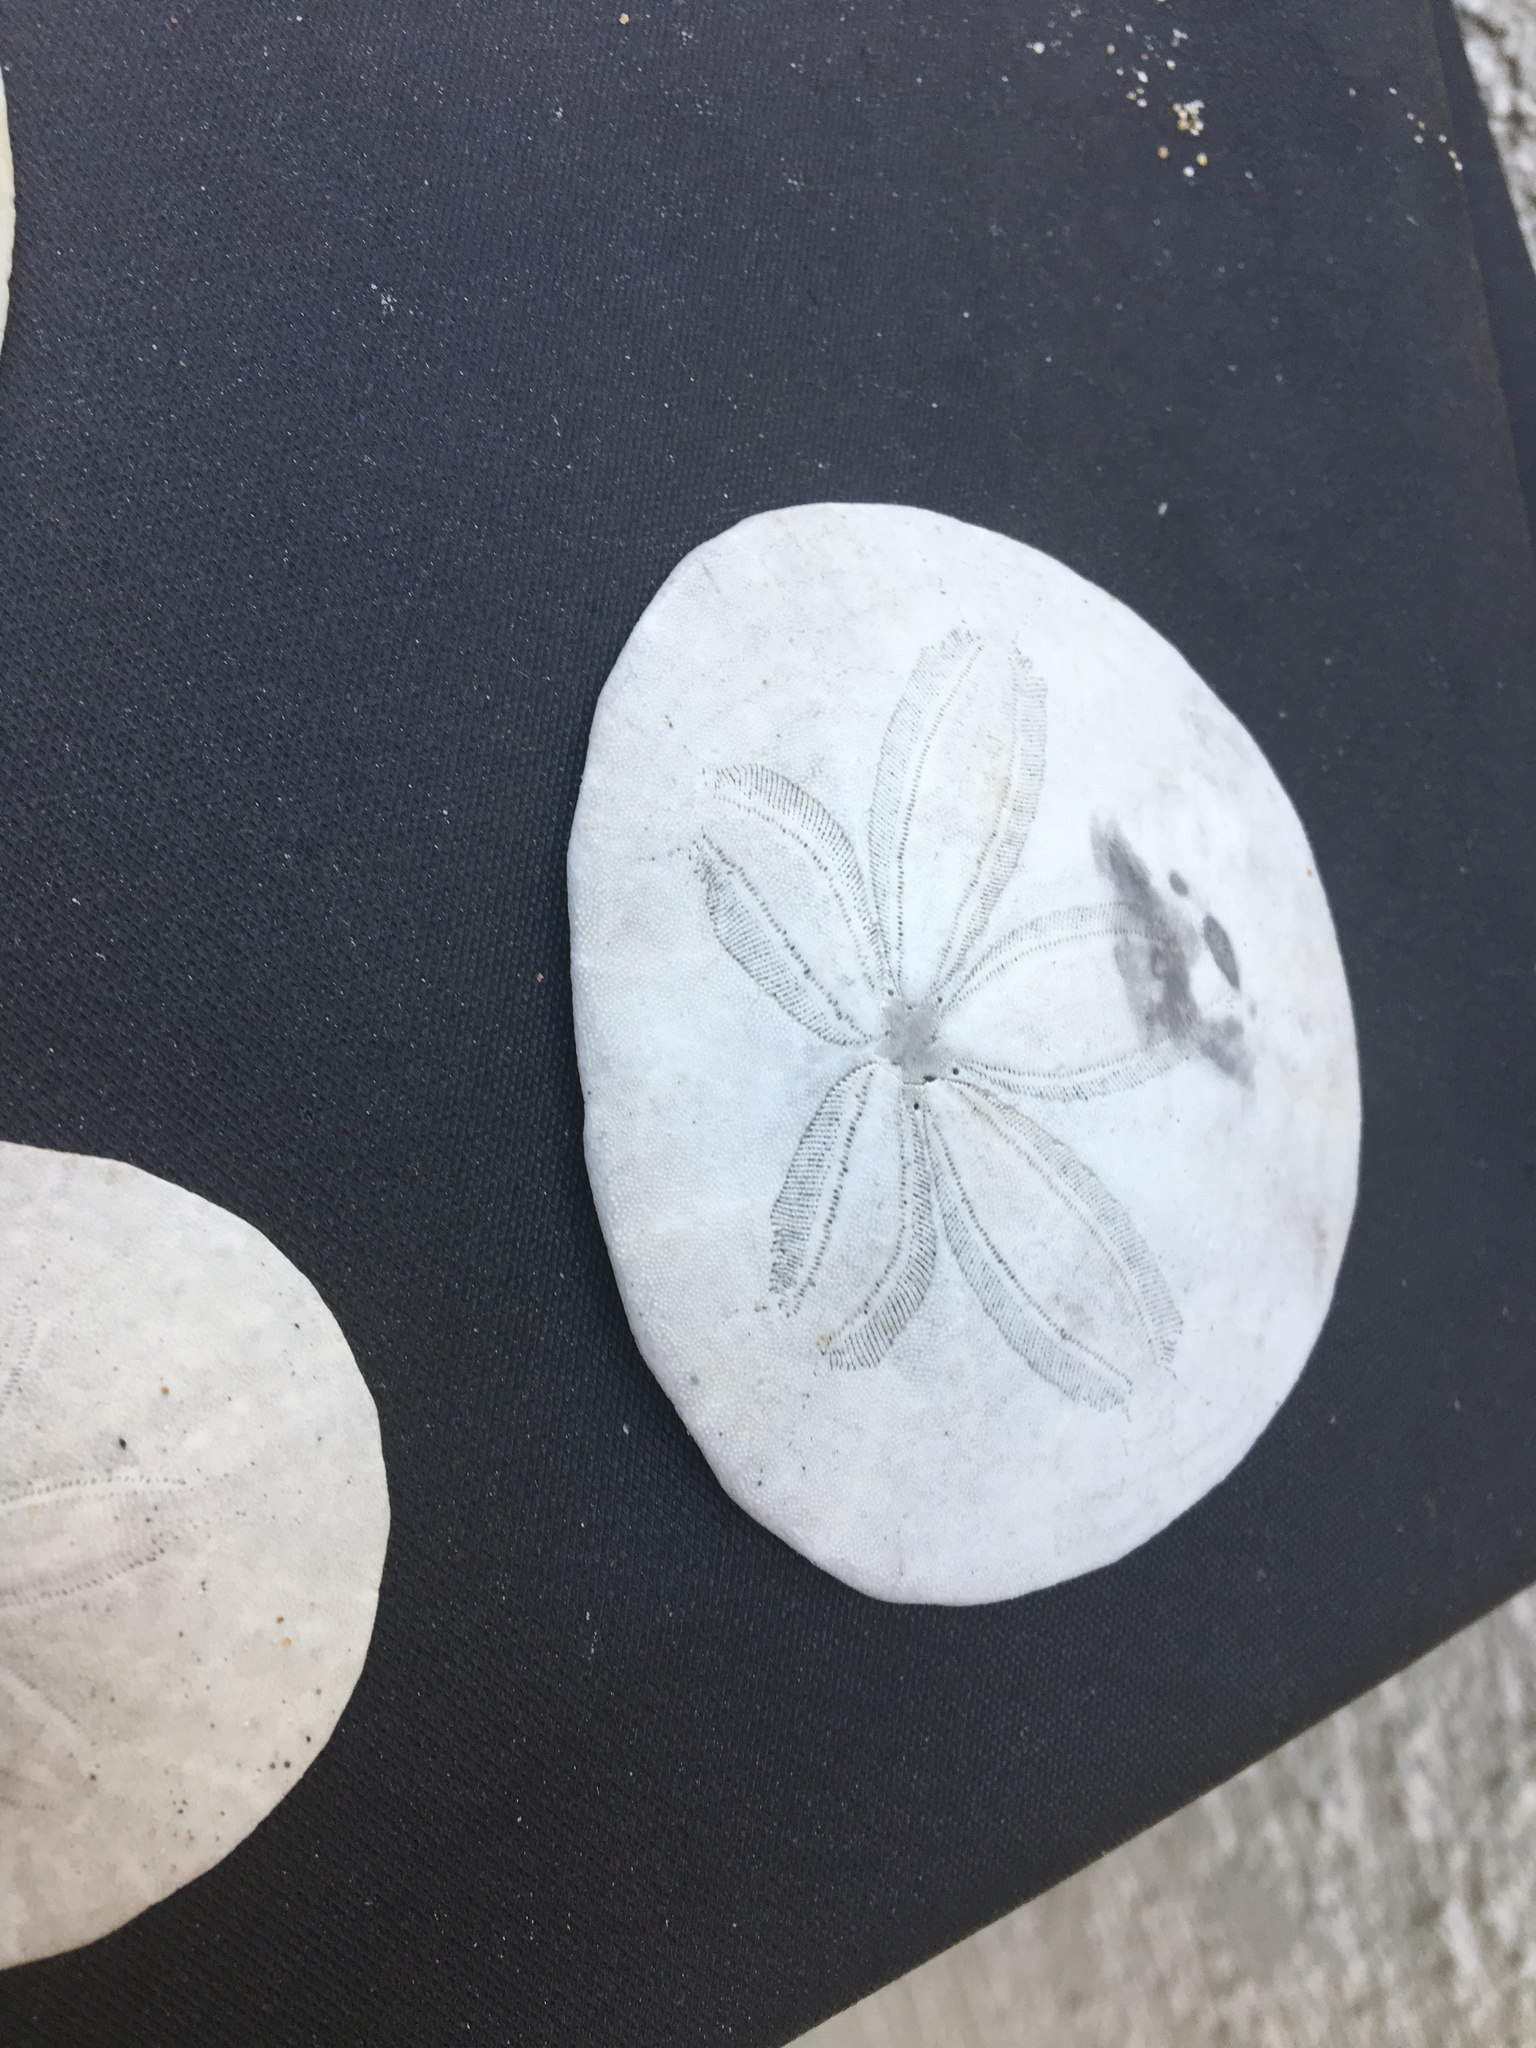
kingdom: Animalia
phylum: Echinodermata
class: Echinoidea
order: Echinolampadacea
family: Dendrasteridae
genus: Dendraster
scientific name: Dendraster excentricus
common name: Eccentric sand dollar sea urchin
